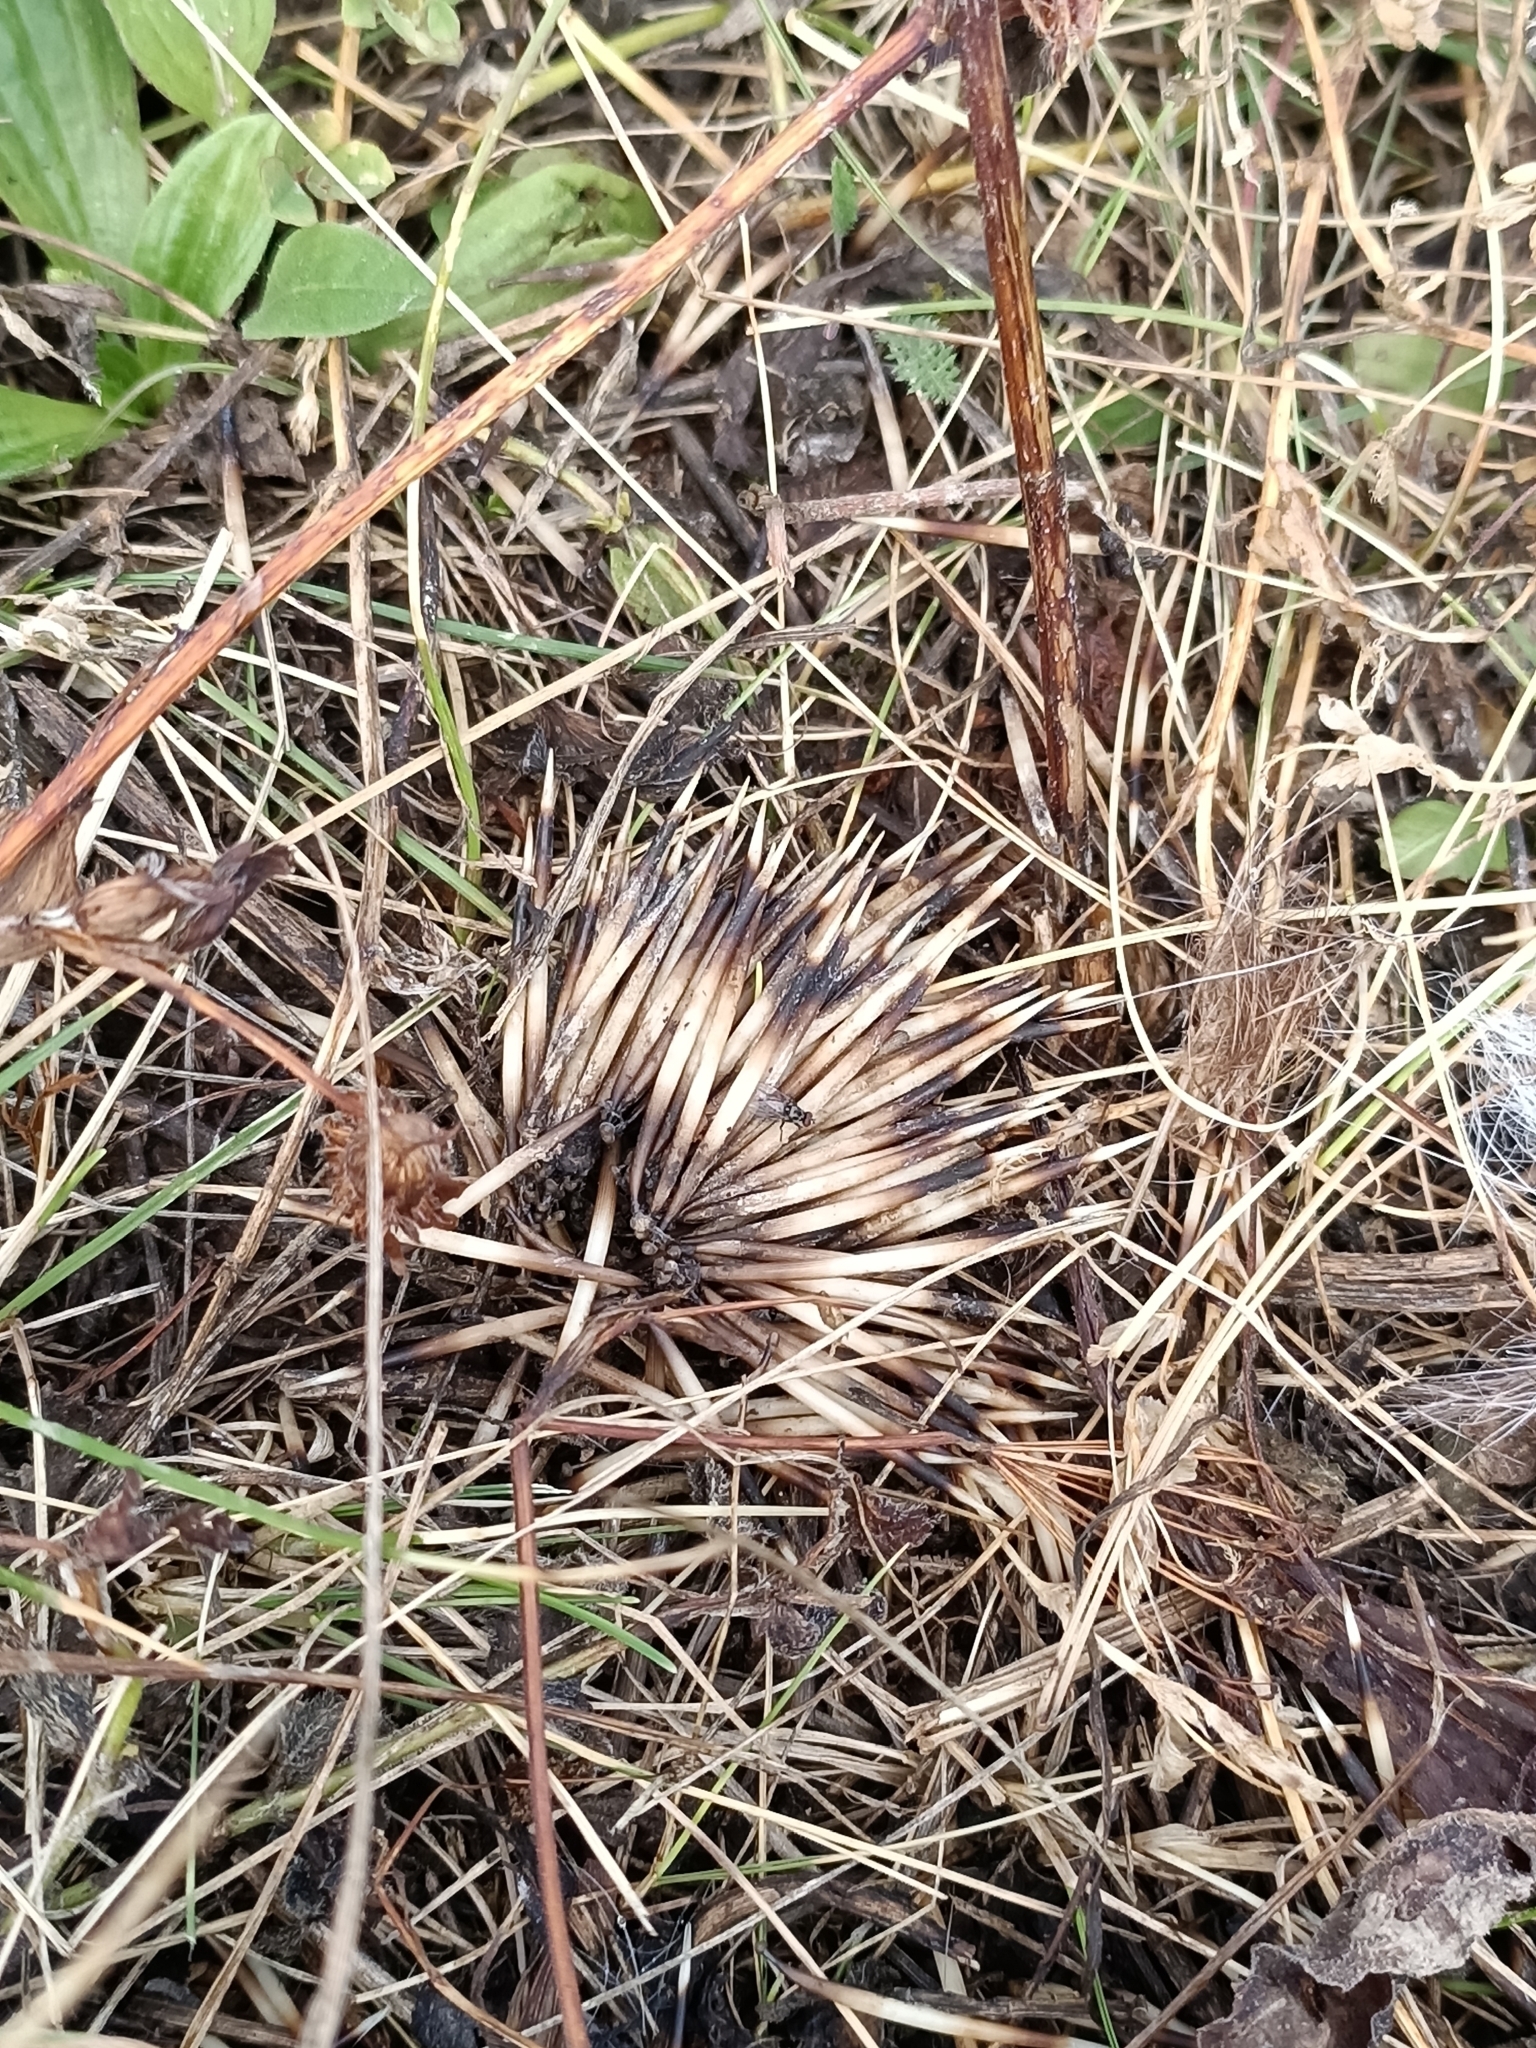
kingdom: Animalia
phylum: Chordata
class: Mammalia
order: Erinaceomorpha
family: Erinaceidae
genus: Erinaceus
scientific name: Erinaceus roumanicus
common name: Northern white-breasted hedgehog
